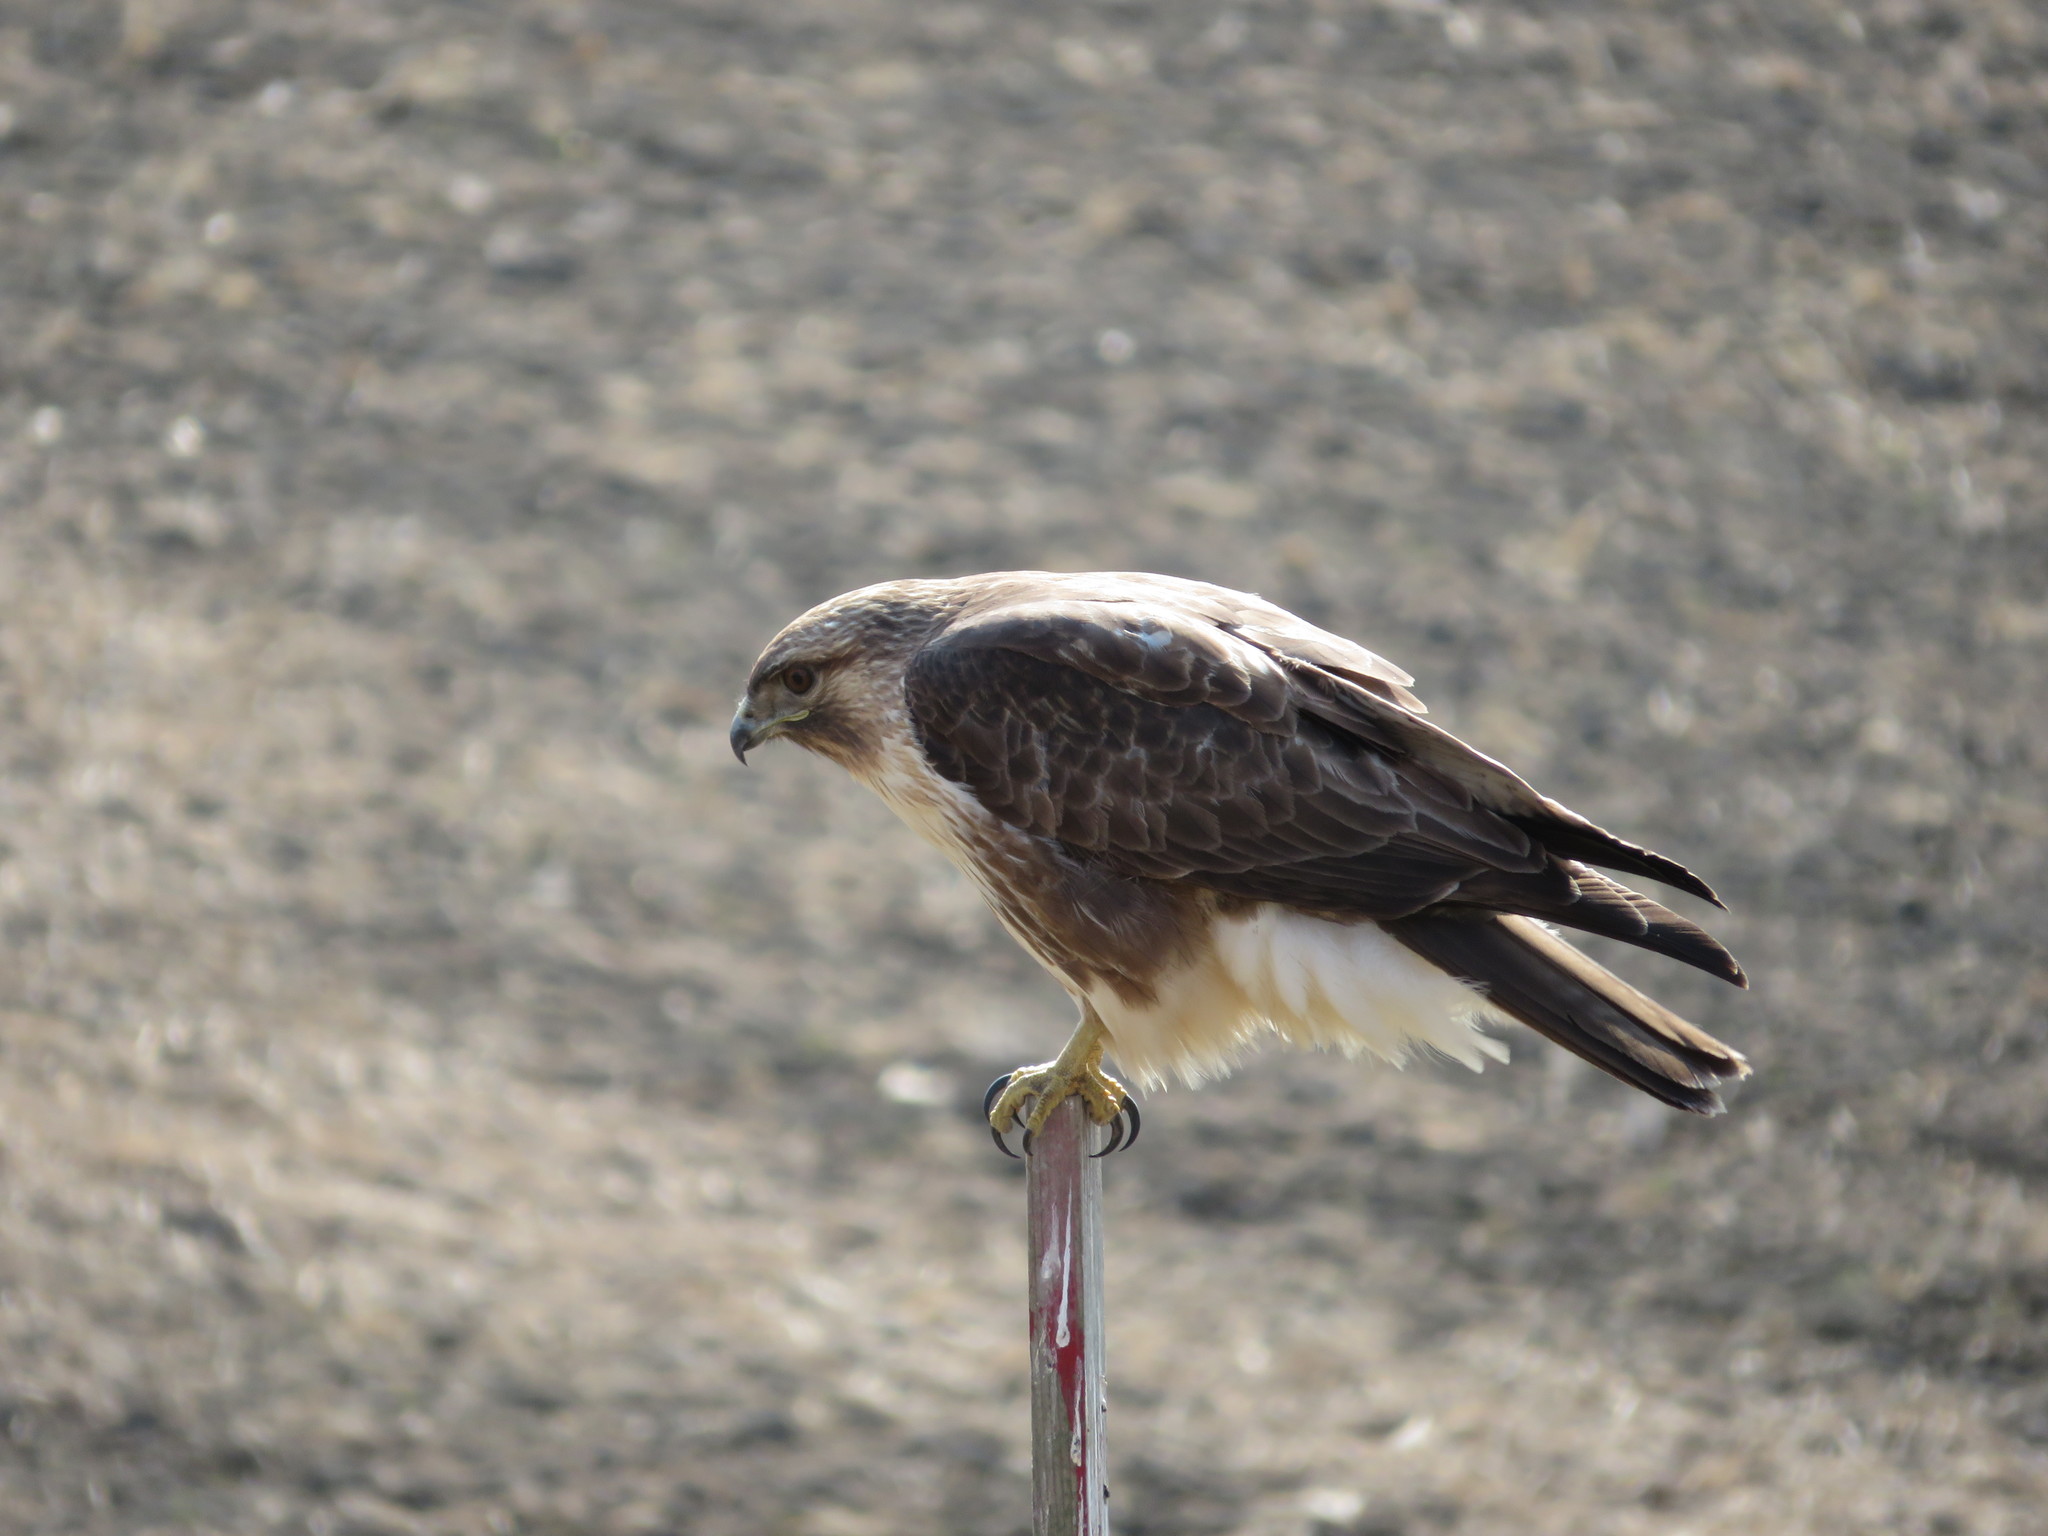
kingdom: Animalia
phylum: Chordata
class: Aves
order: Accipitriformes
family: Accipitridae
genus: Buteo
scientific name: Buteo japonicus
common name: Eastern buzzard
